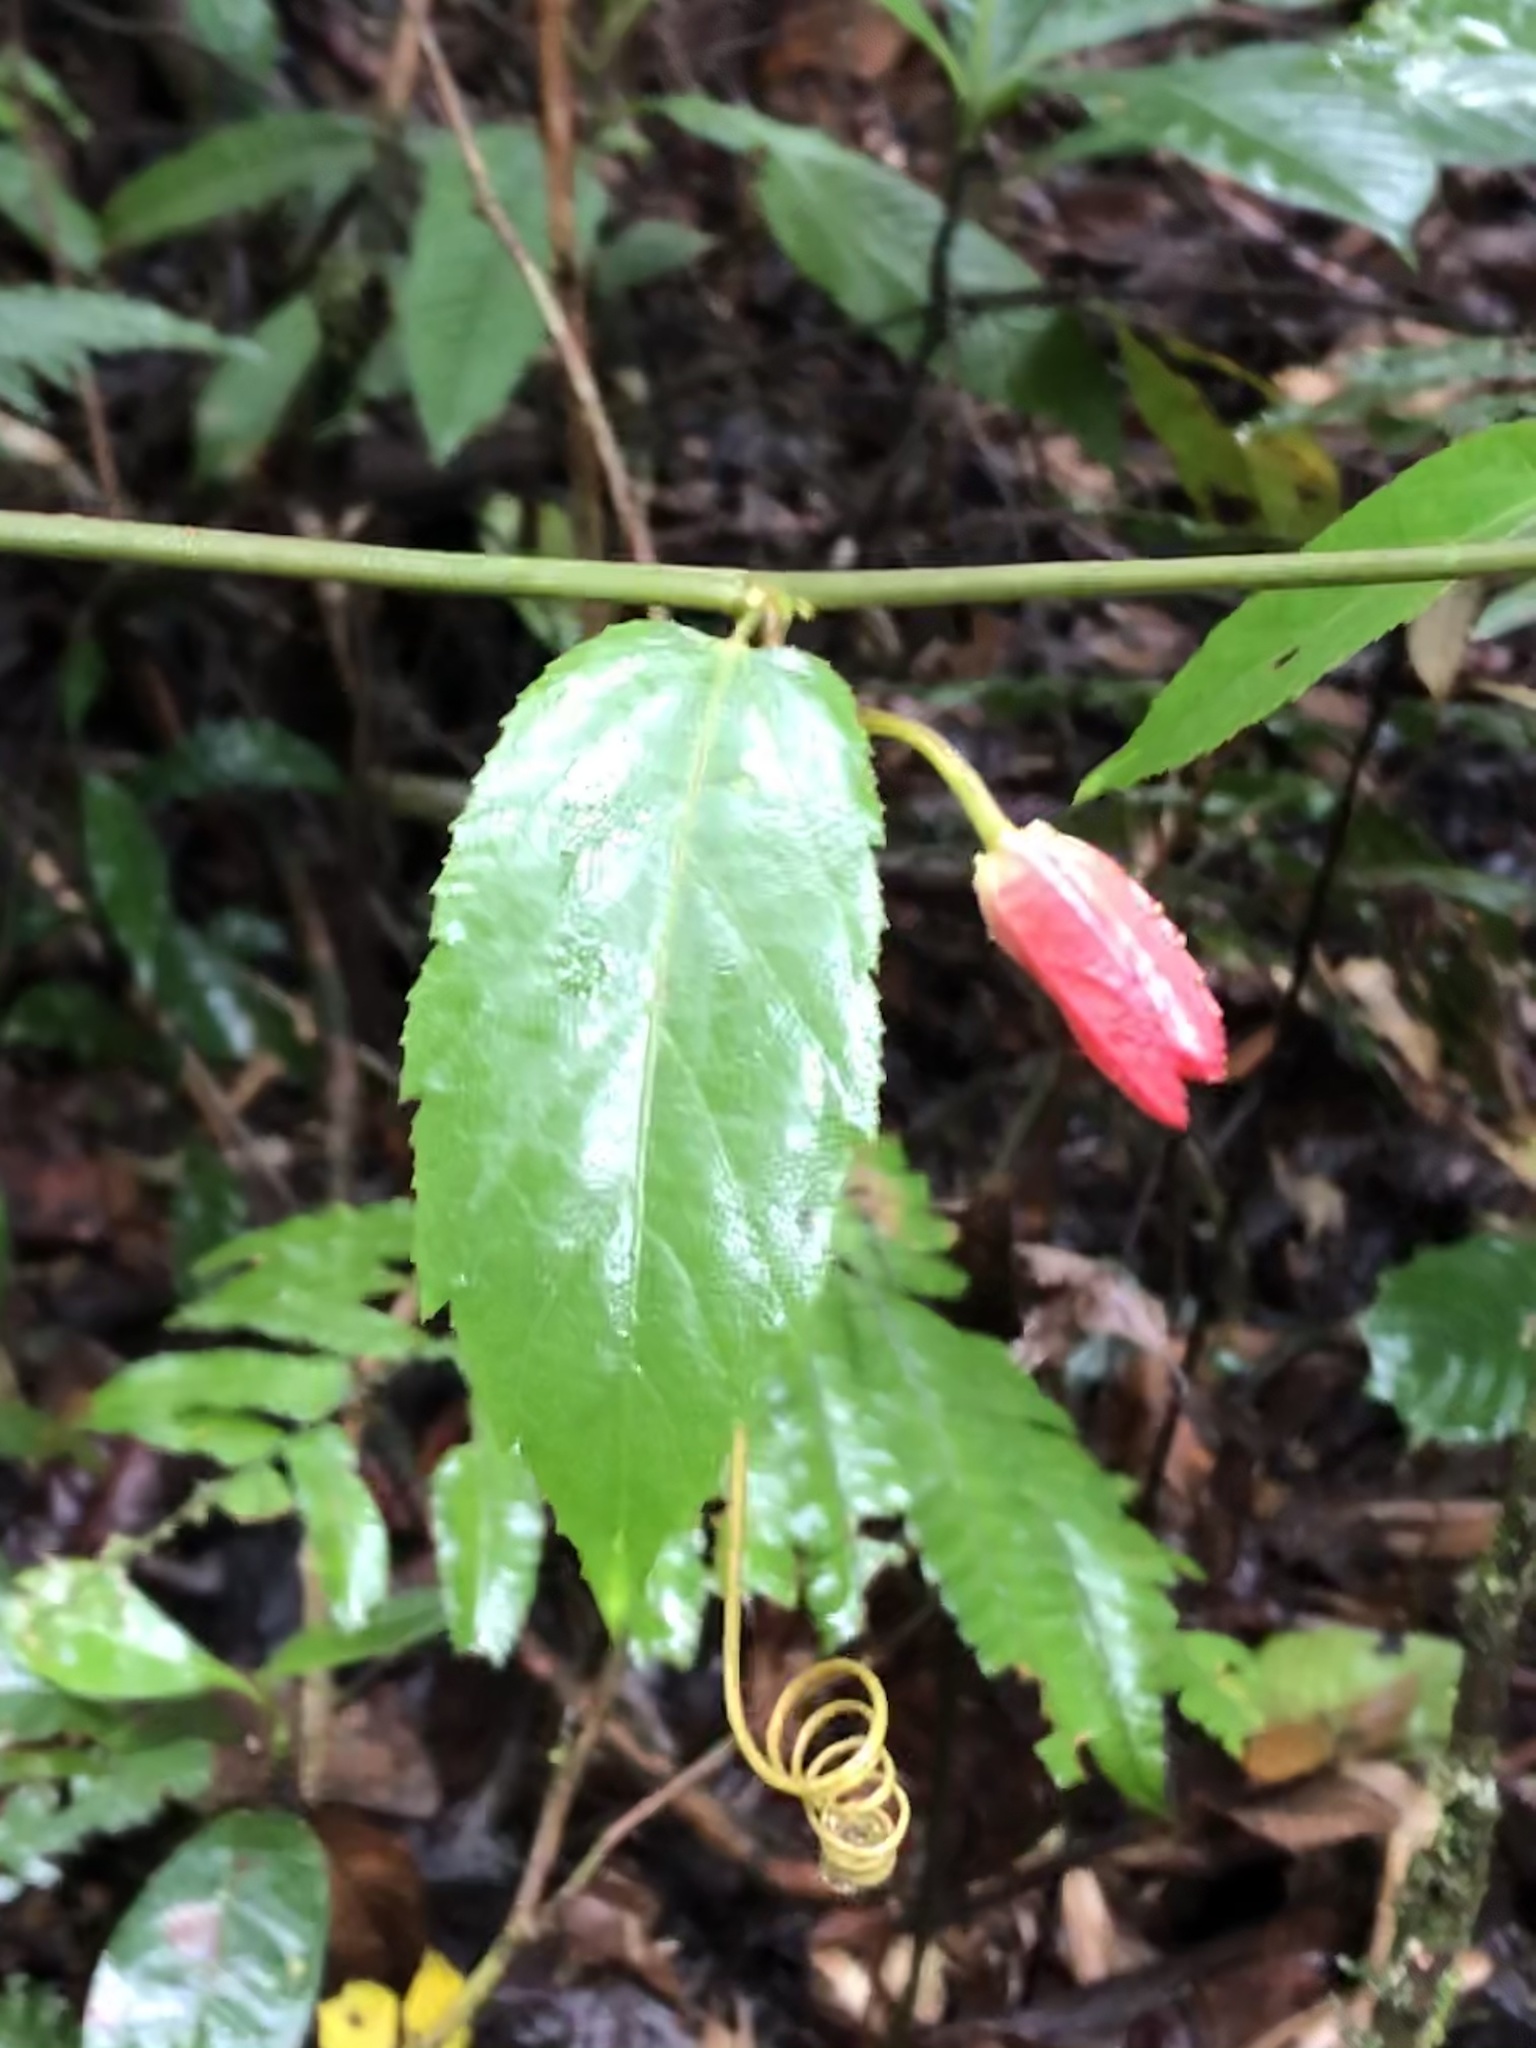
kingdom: Plantae
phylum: Tracheophyta
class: Magnoliopsida
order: Malpighiales
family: Passifloraceae
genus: Passiflora
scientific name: Passiflora miniata
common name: Red granadilla
